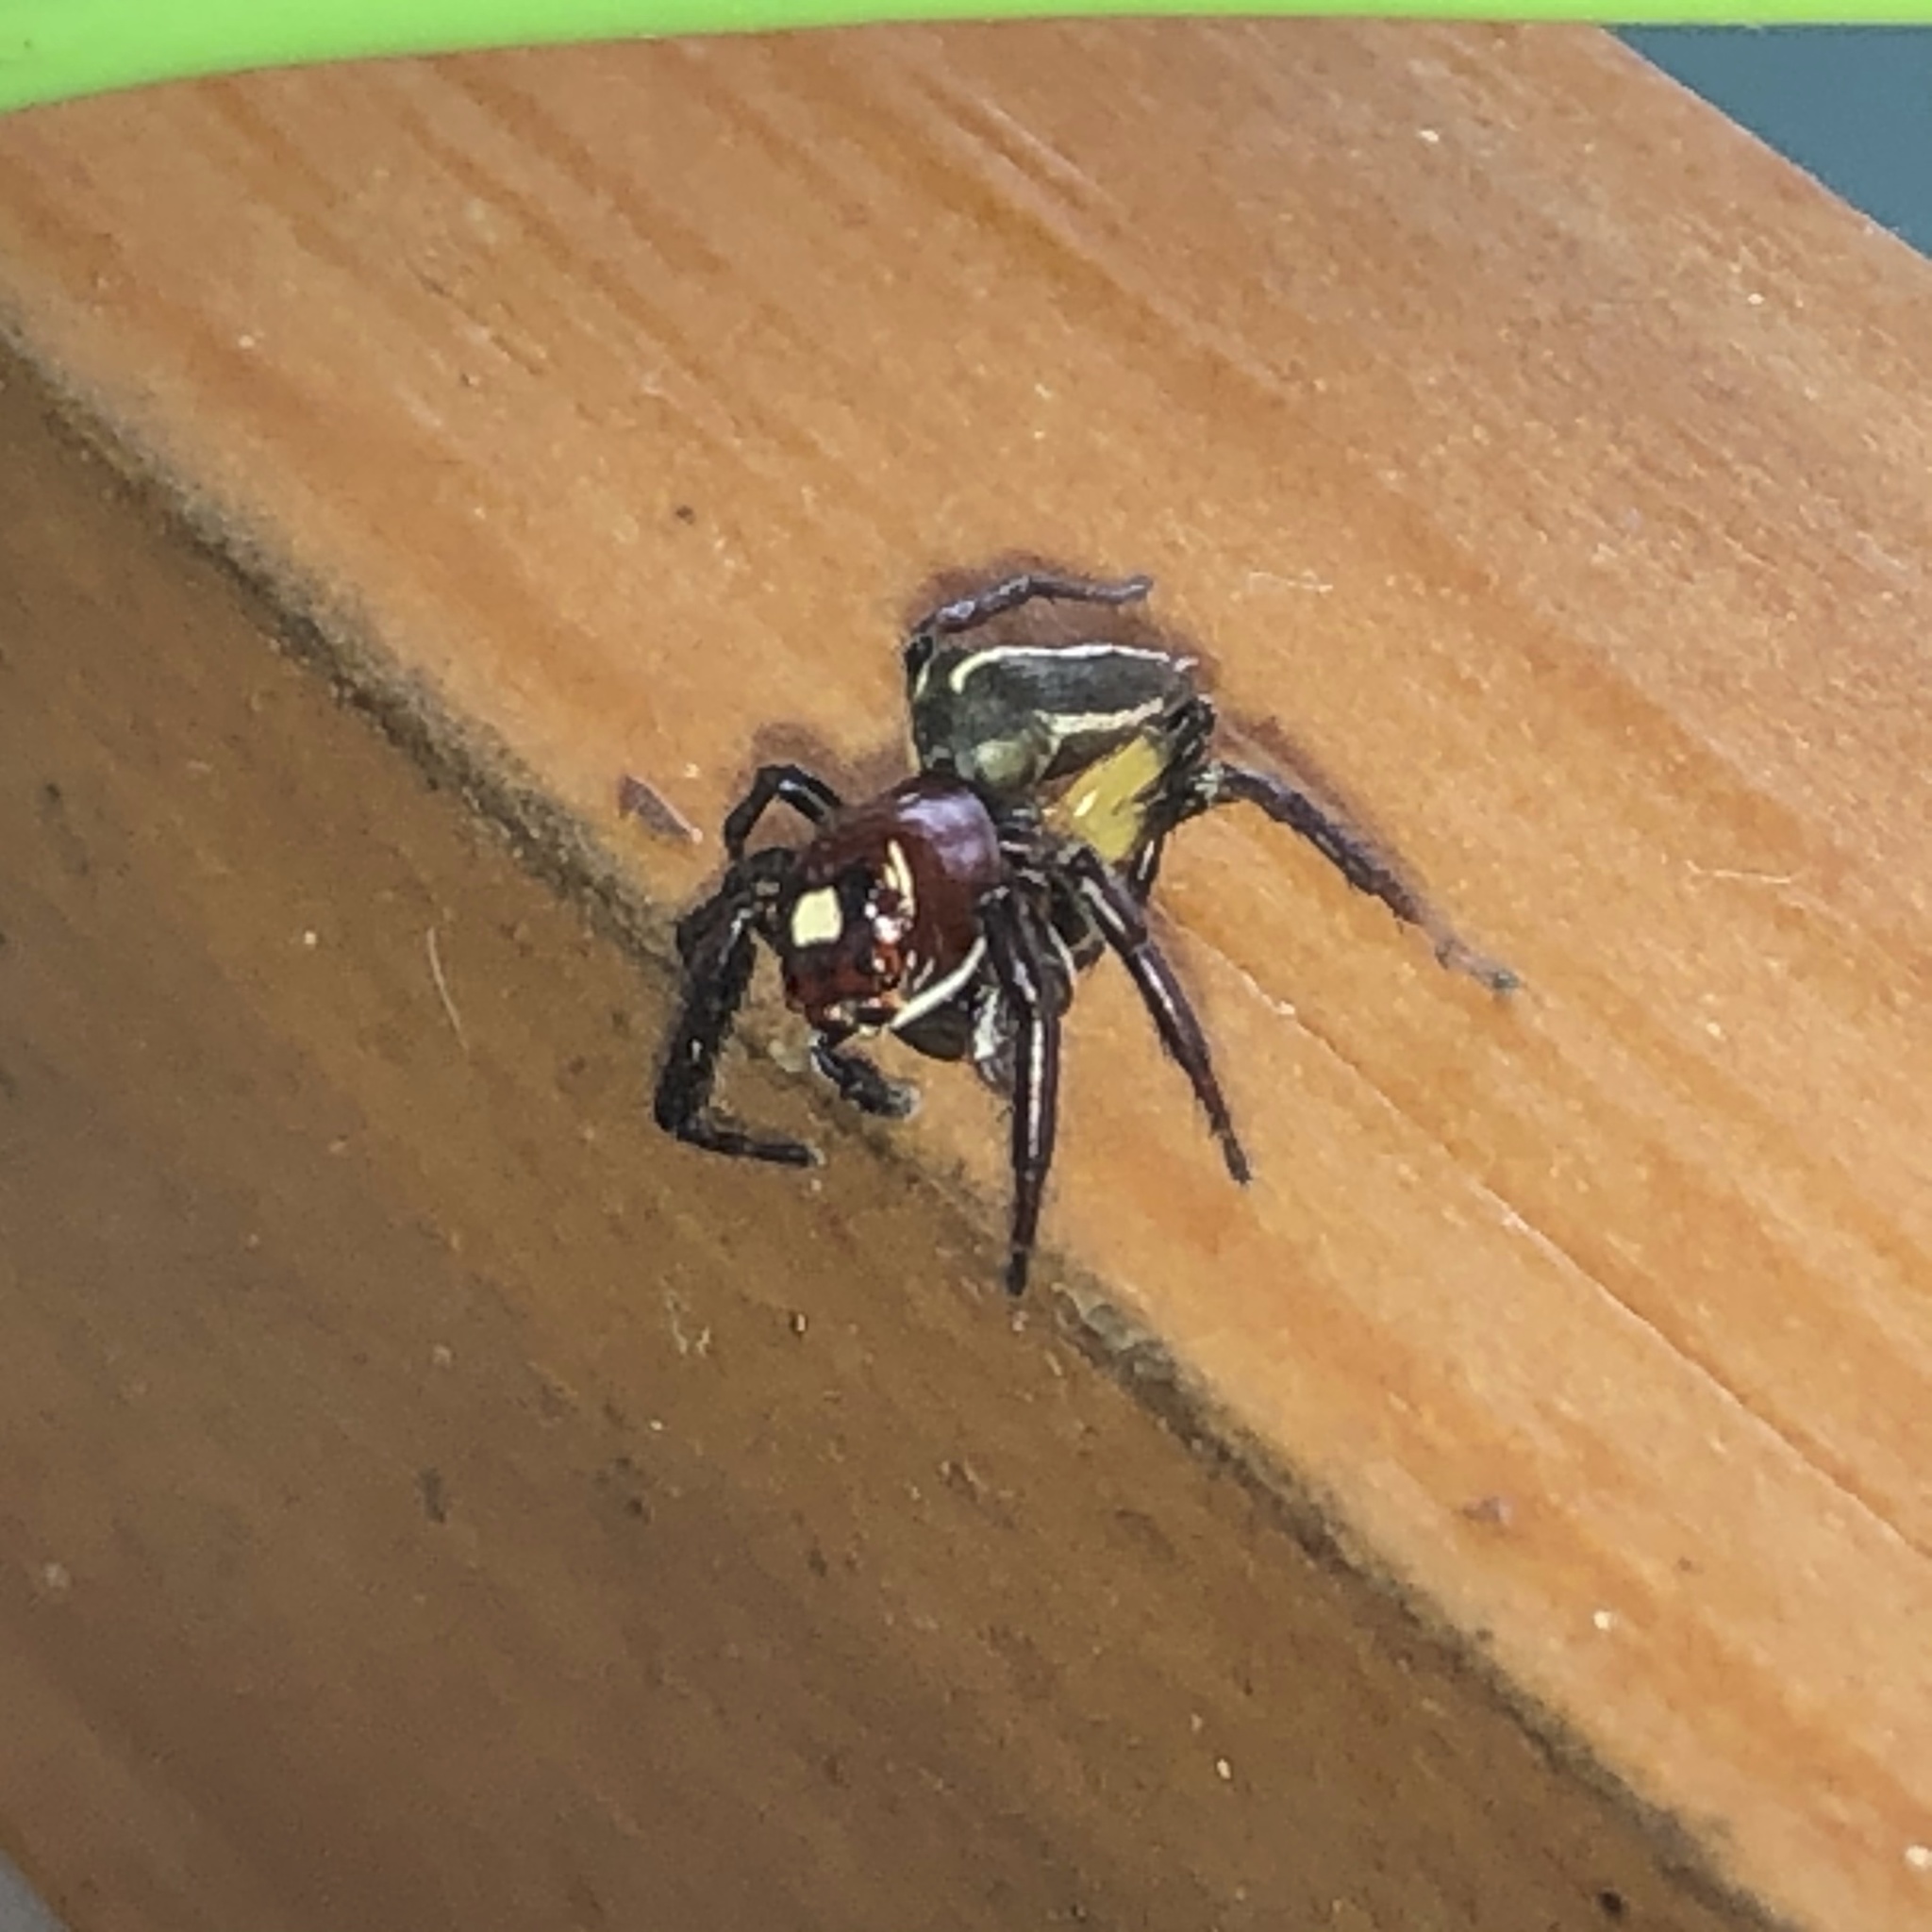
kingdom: Animalia
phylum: Arthropoda
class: Arachnida
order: Araneae
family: Salticidae
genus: Colonus
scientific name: Colonus sylvanus
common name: Jumping spiders
